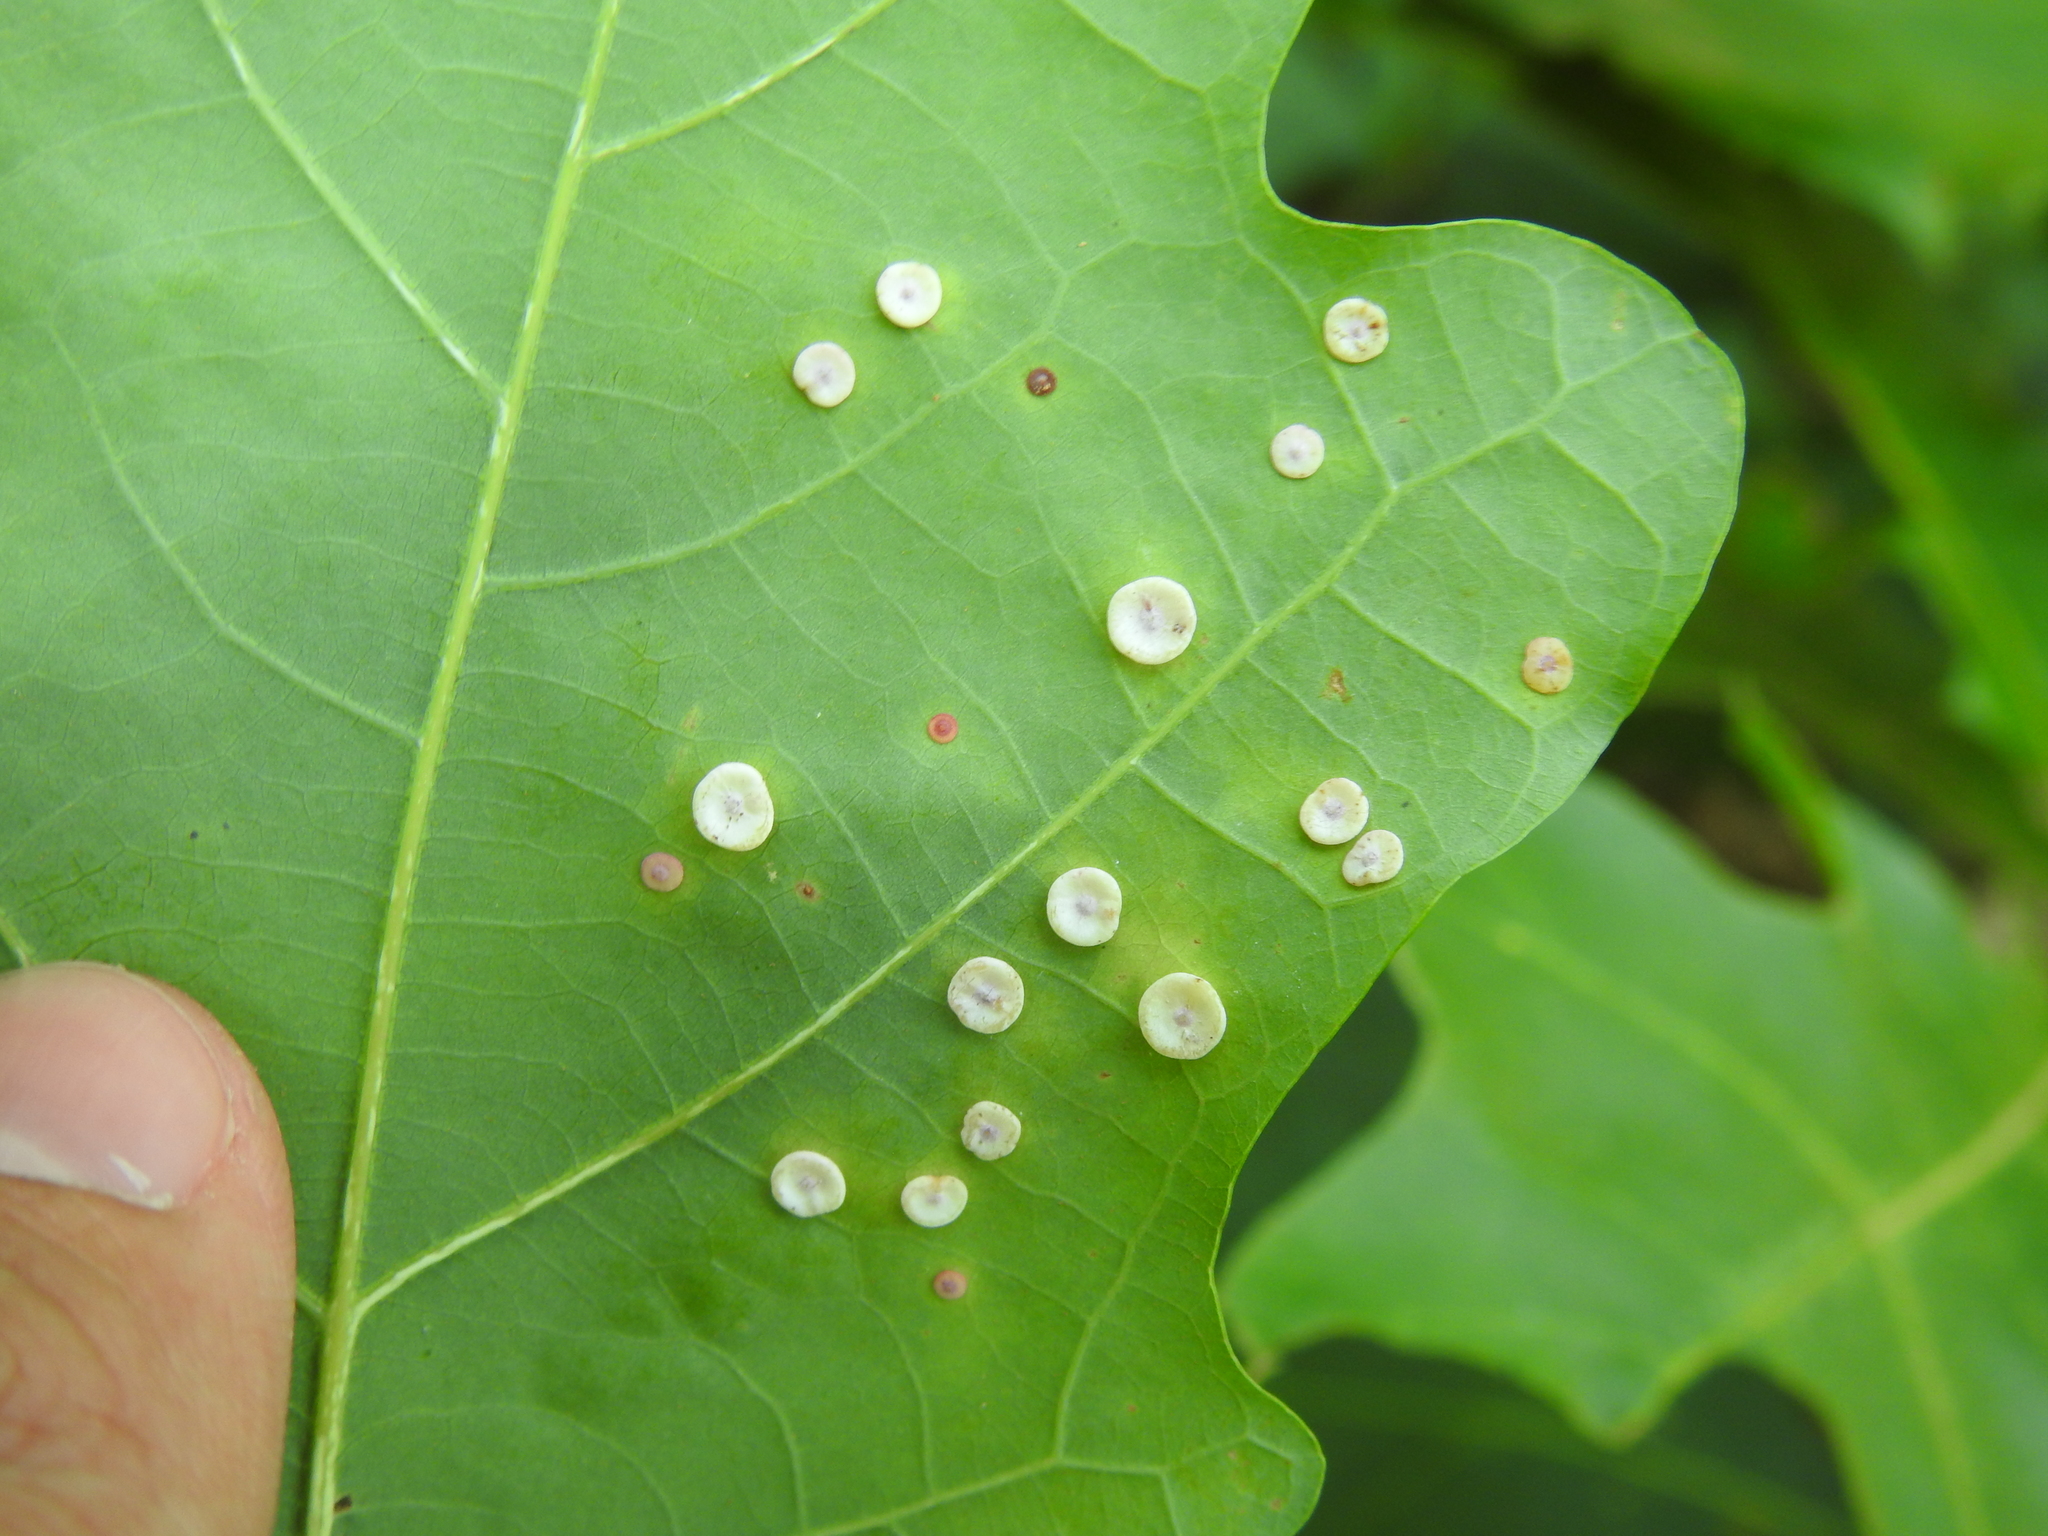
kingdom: Animalia
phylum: Arthropoda
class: Insecta
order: Hymenoptera
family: Cynipidae
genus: Phylloteras
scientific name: Phylloteras poculum
